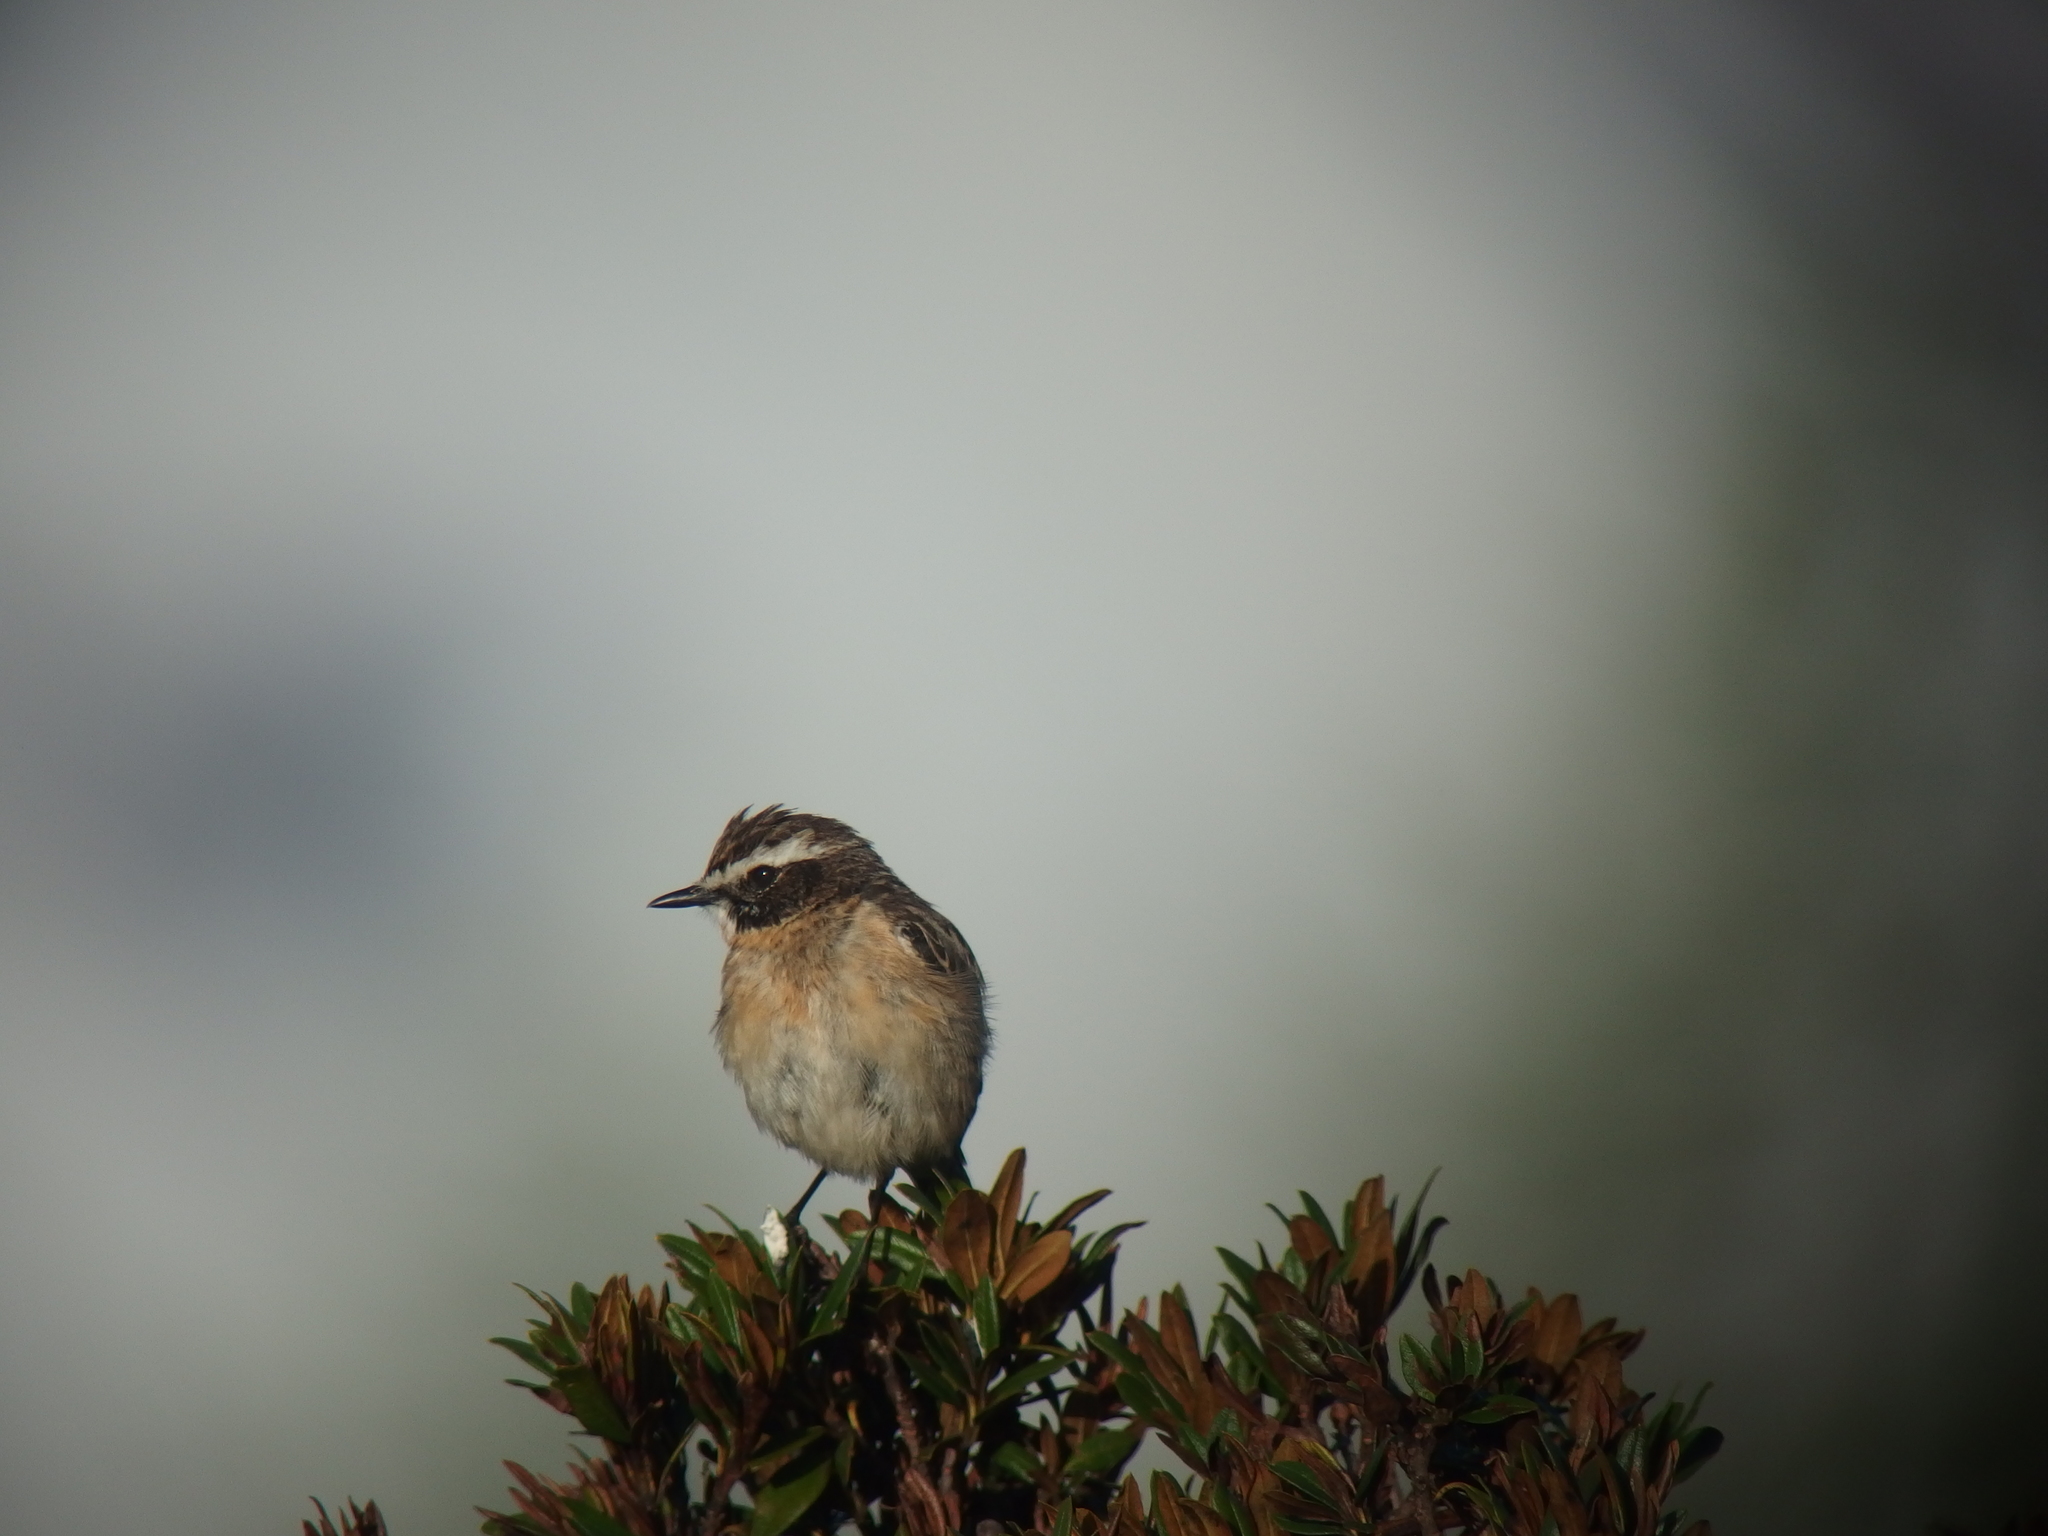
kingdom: Animalia
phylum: Chordata
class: Aves
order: Passeriformes
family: Muscicapidae
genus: Saxicola
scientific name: Saxicola rubetra
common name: Whinchat
